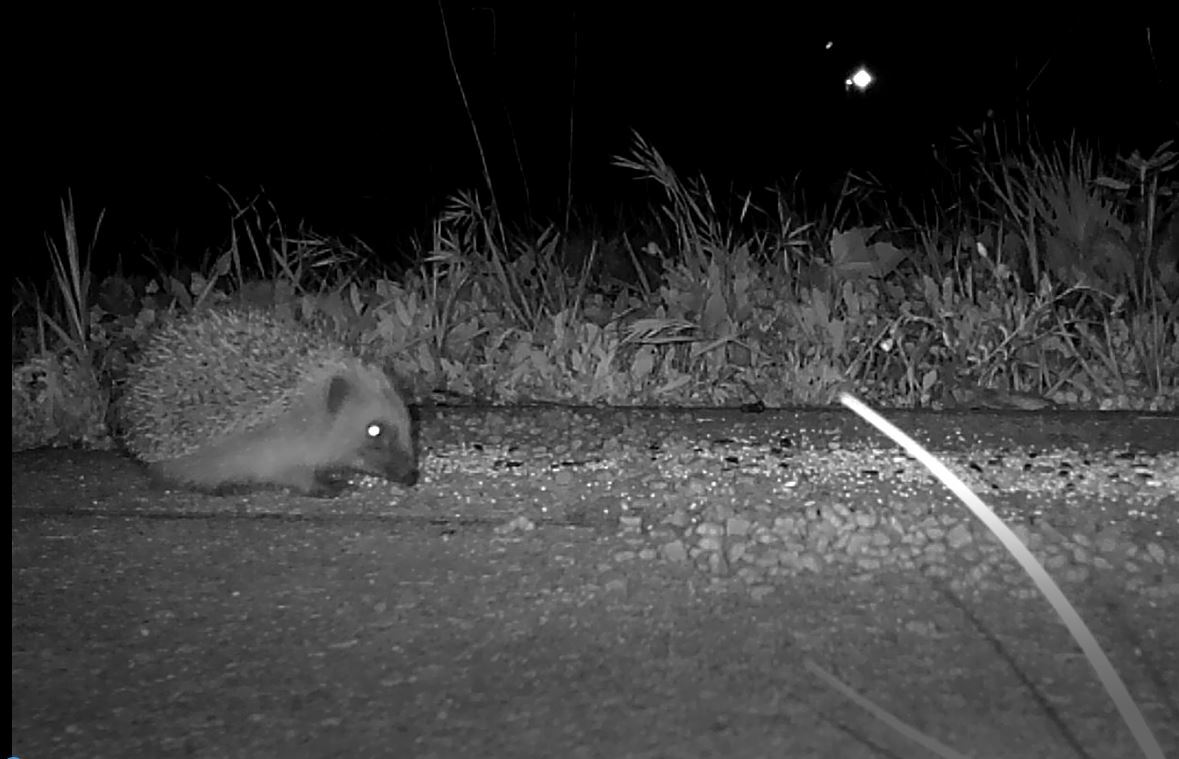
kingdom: Animalia
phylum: Chordata
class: Mammalia
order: Erinaceomorpha
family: Erinaceidae
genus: Erinaceus
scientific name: Erinaceus europaeus
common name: West european hedgehog
